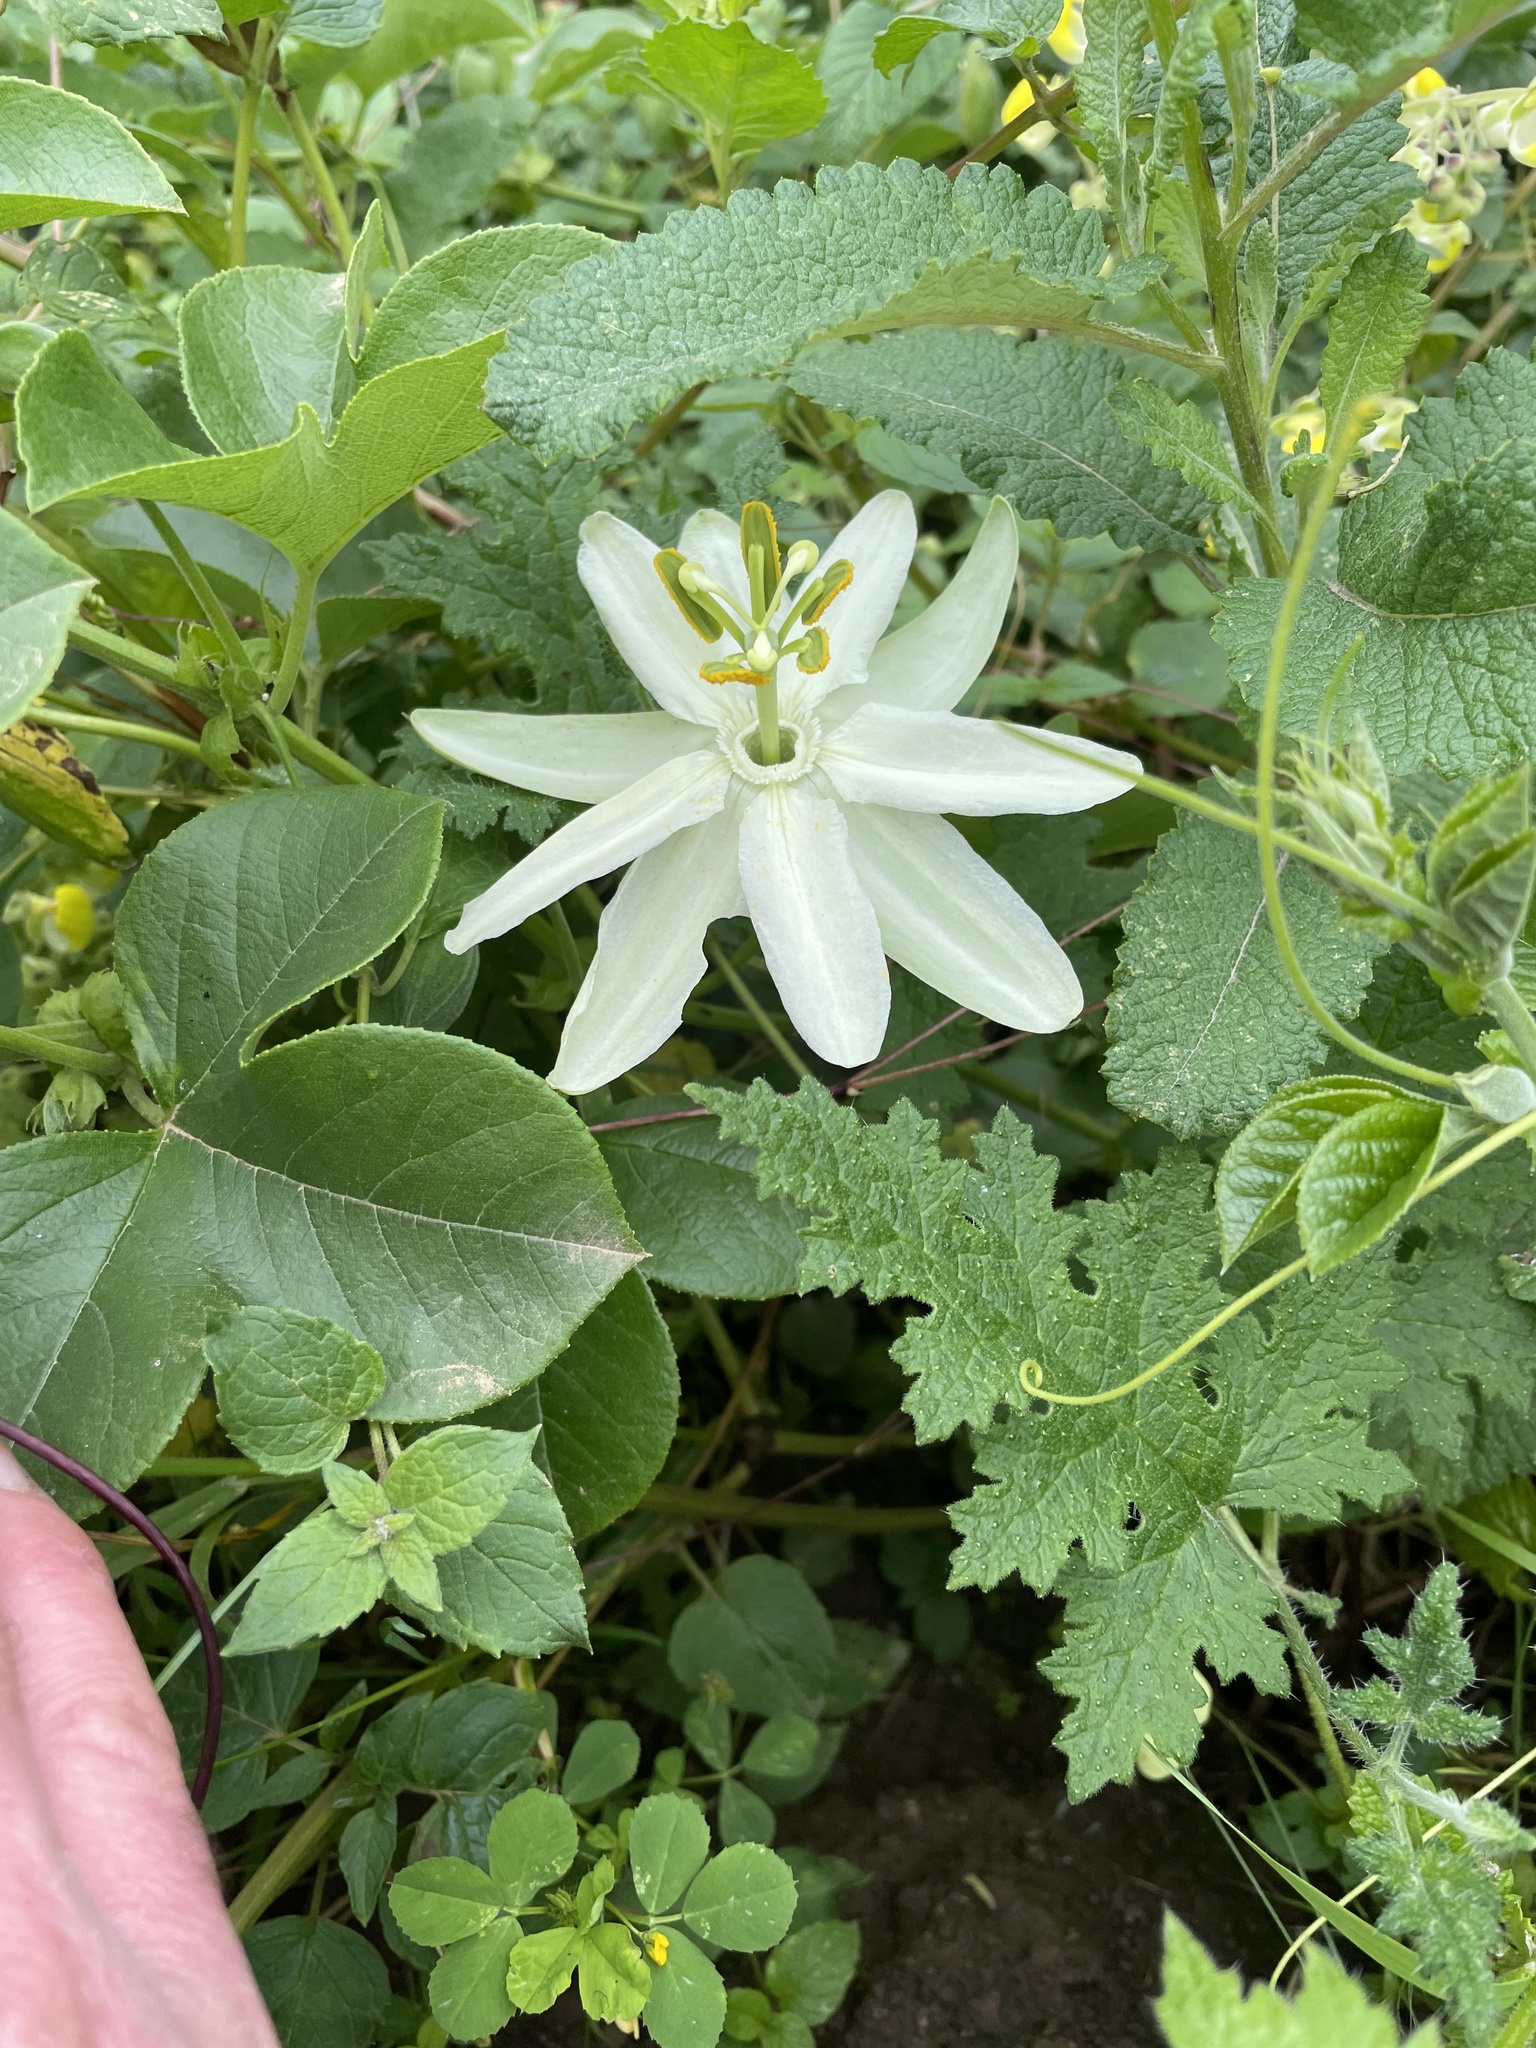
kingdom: Plantae
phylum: Tracheophyta
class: Magnoliopsida
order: Malpighiales
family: Passifloraceae
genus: Passiflora
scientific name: Passiflora peduncularis
